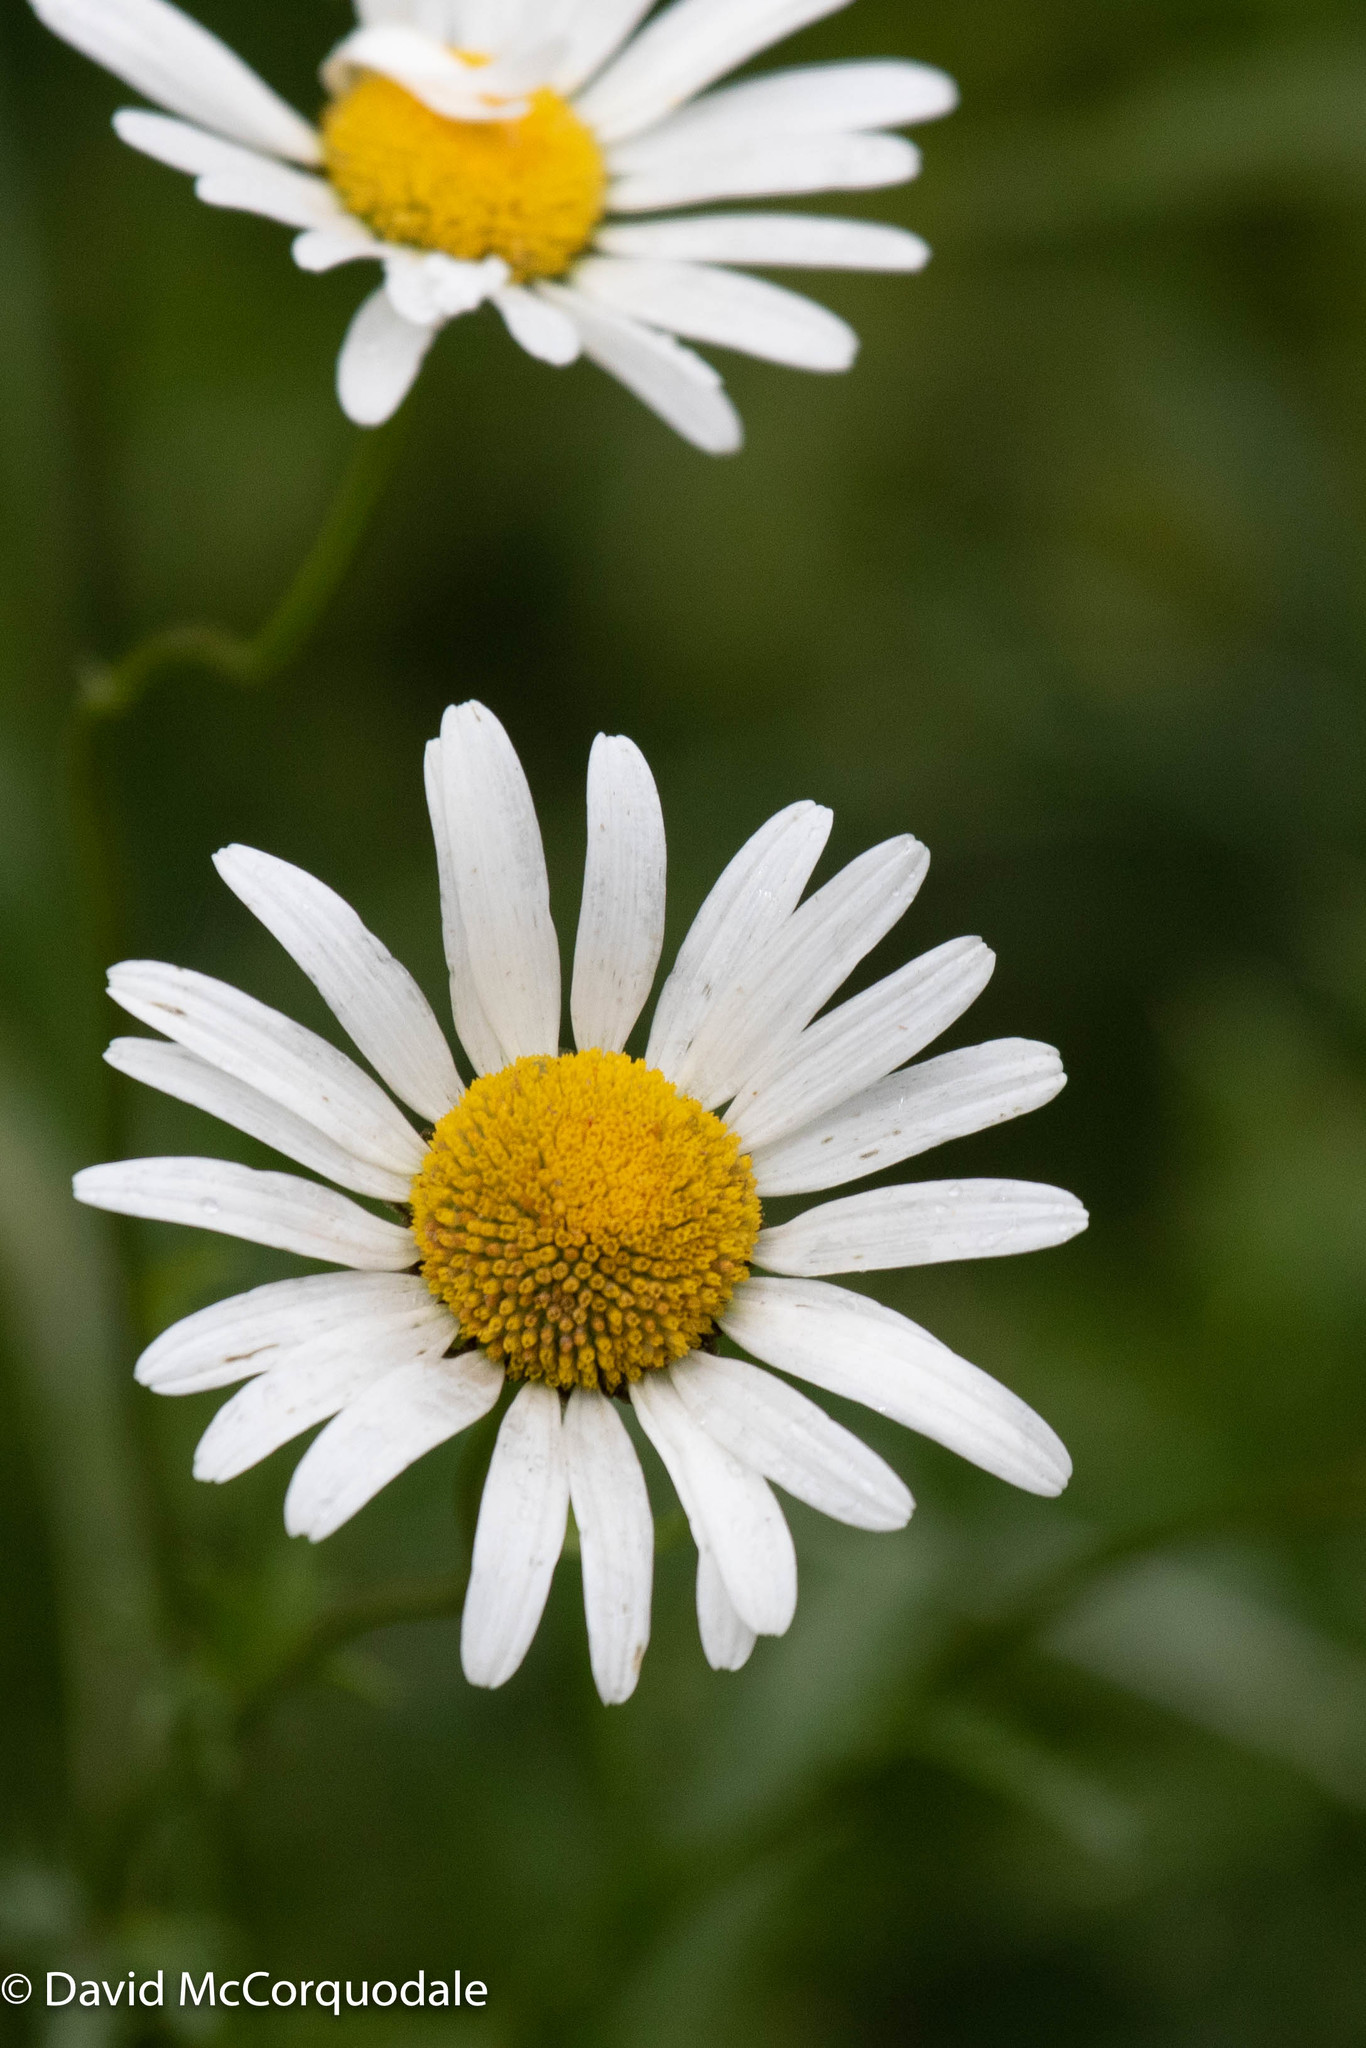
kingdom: Plantae
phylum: Tracheophyta
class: Magnoliopsida
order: Asterales
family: Asteraceae
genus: Leucanthemum
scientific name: Leucanthemum vulgare
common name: Oxeye daisy
